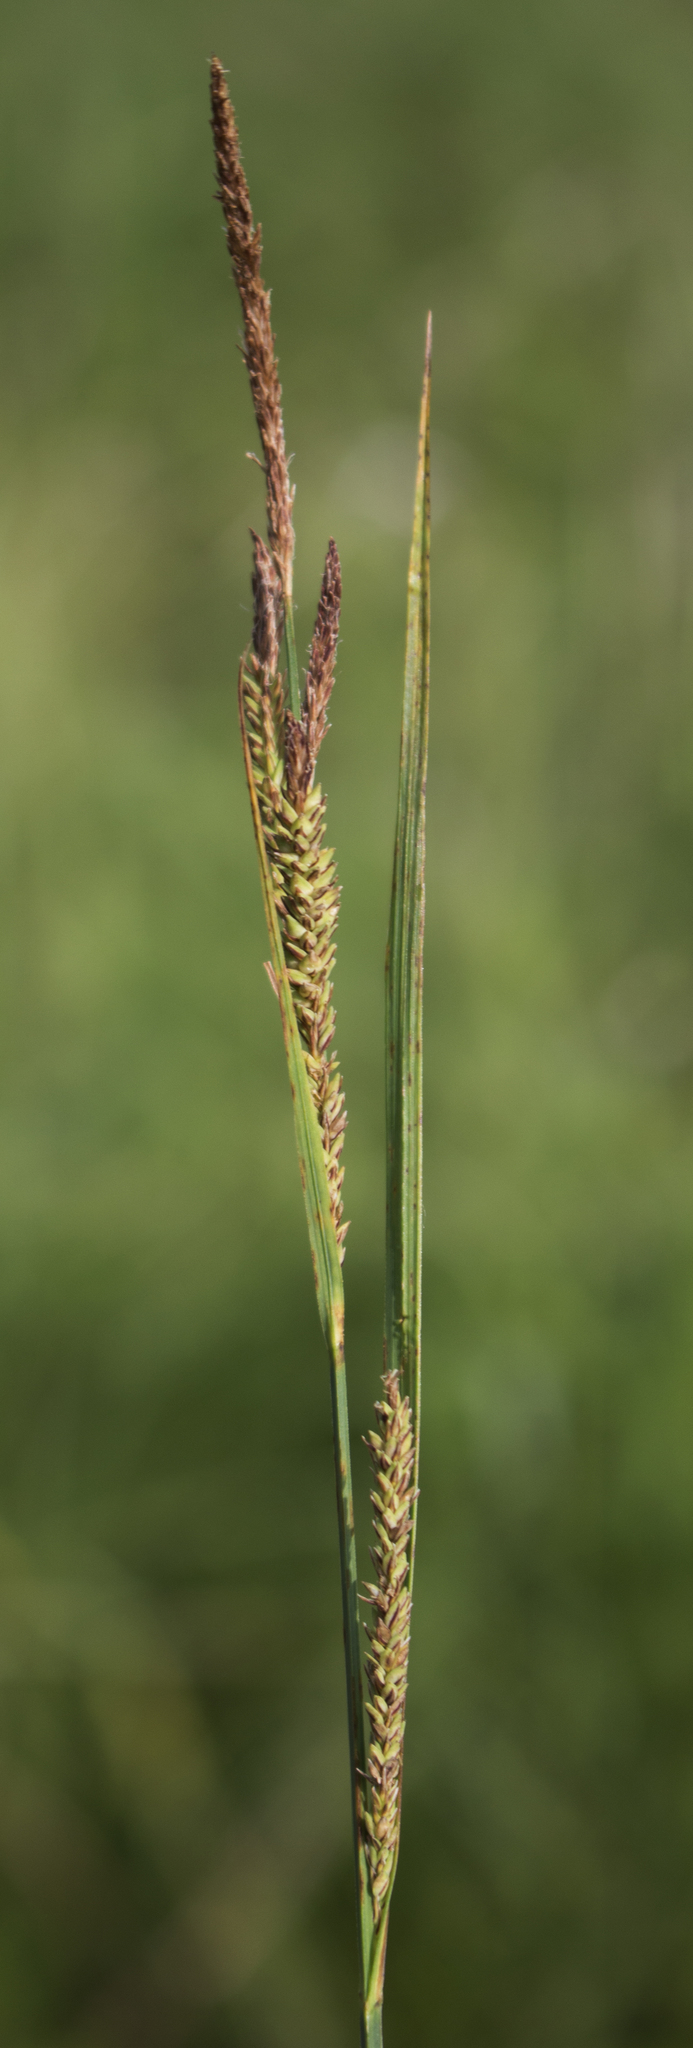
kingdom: Plantae
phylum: Tracheophyta
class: Liliopsida
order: Poales
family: Cyperaceae
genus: Carex
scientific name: Carex stricta
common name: Hummock sedge
